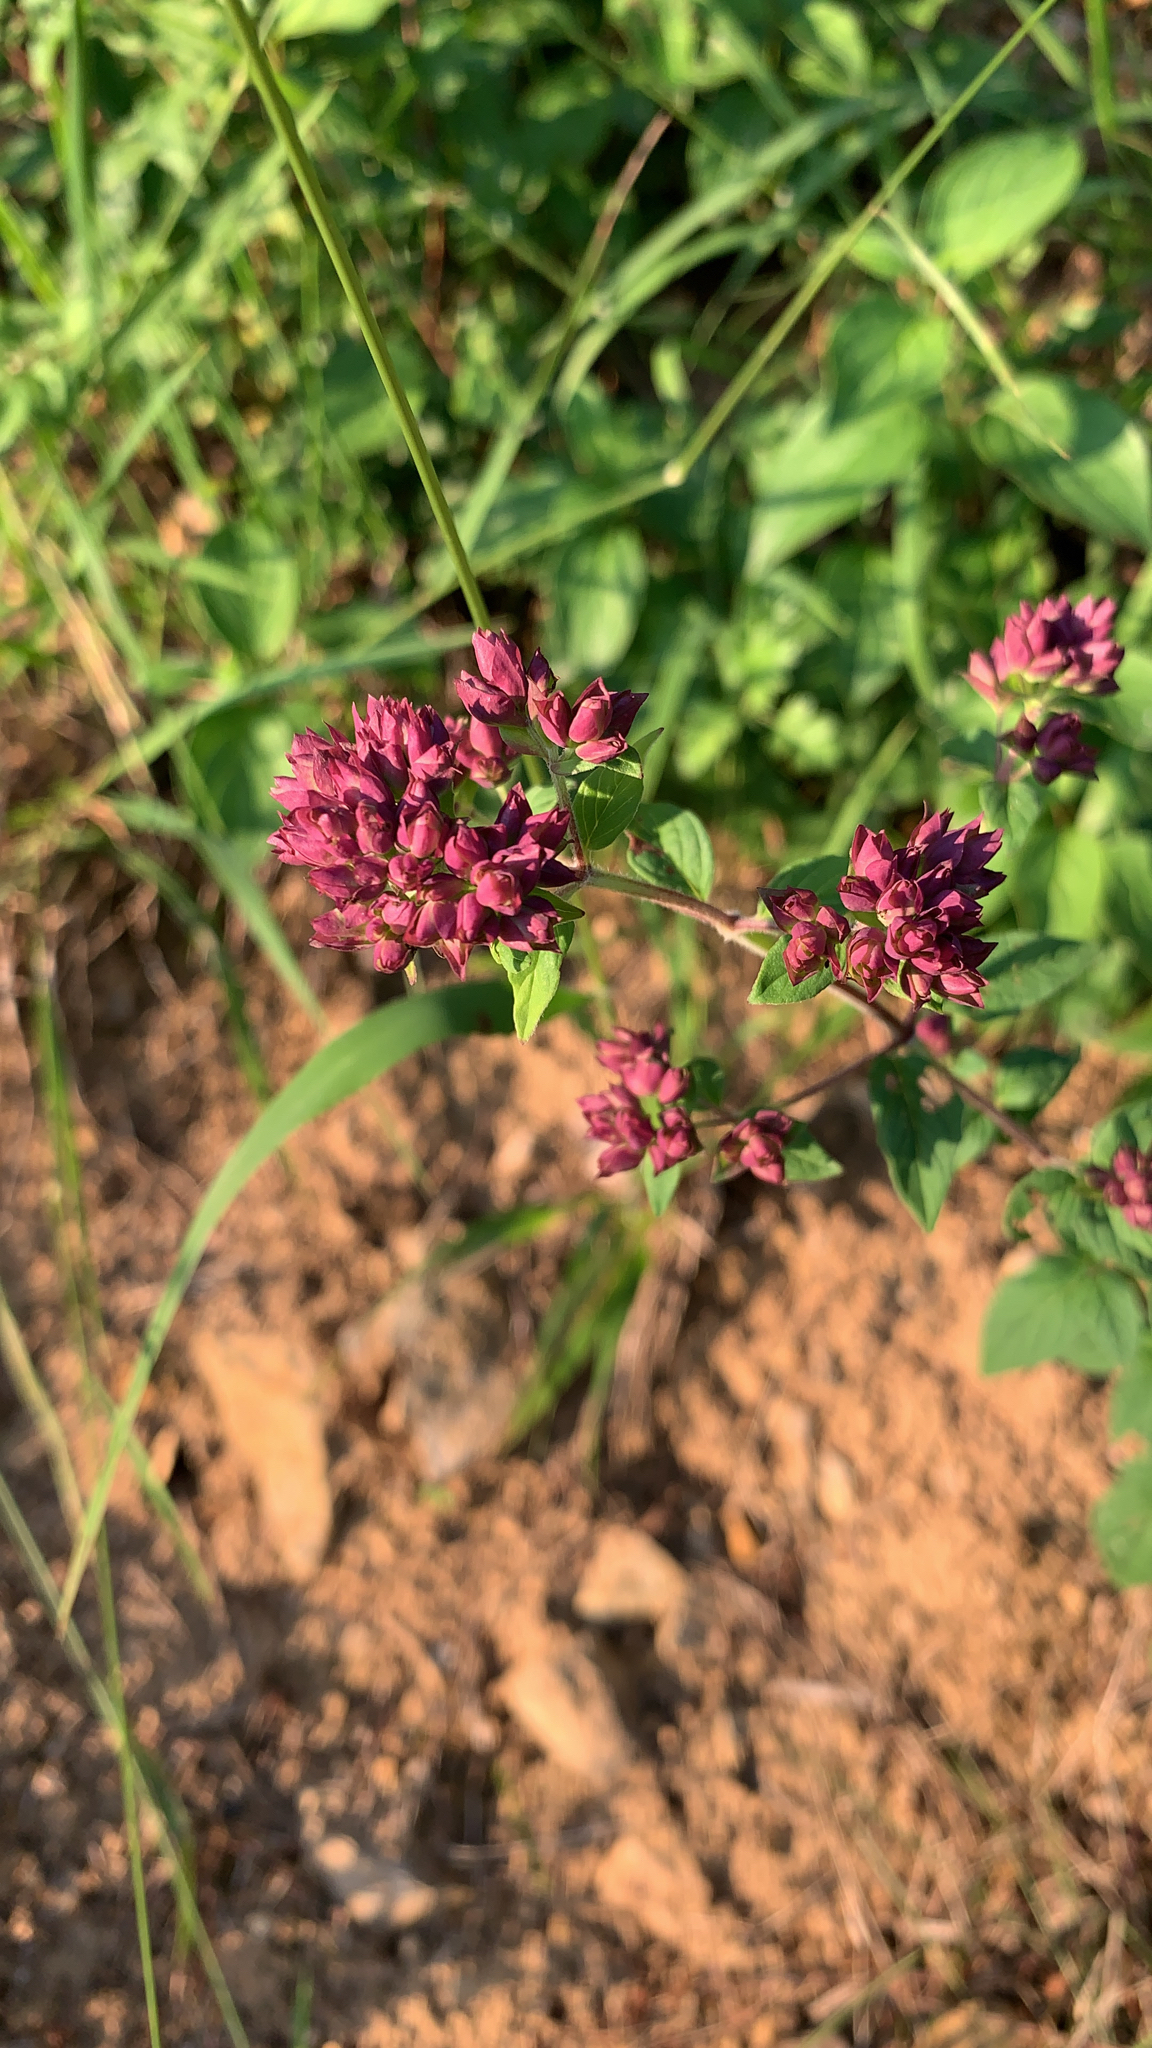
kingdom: Plantae
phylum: Tracheophyta
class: Magnoliopsida
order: Lamiales
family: Lamiaceae
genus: Origanum
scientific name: Origanum vulgare
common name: Wild marjoram
